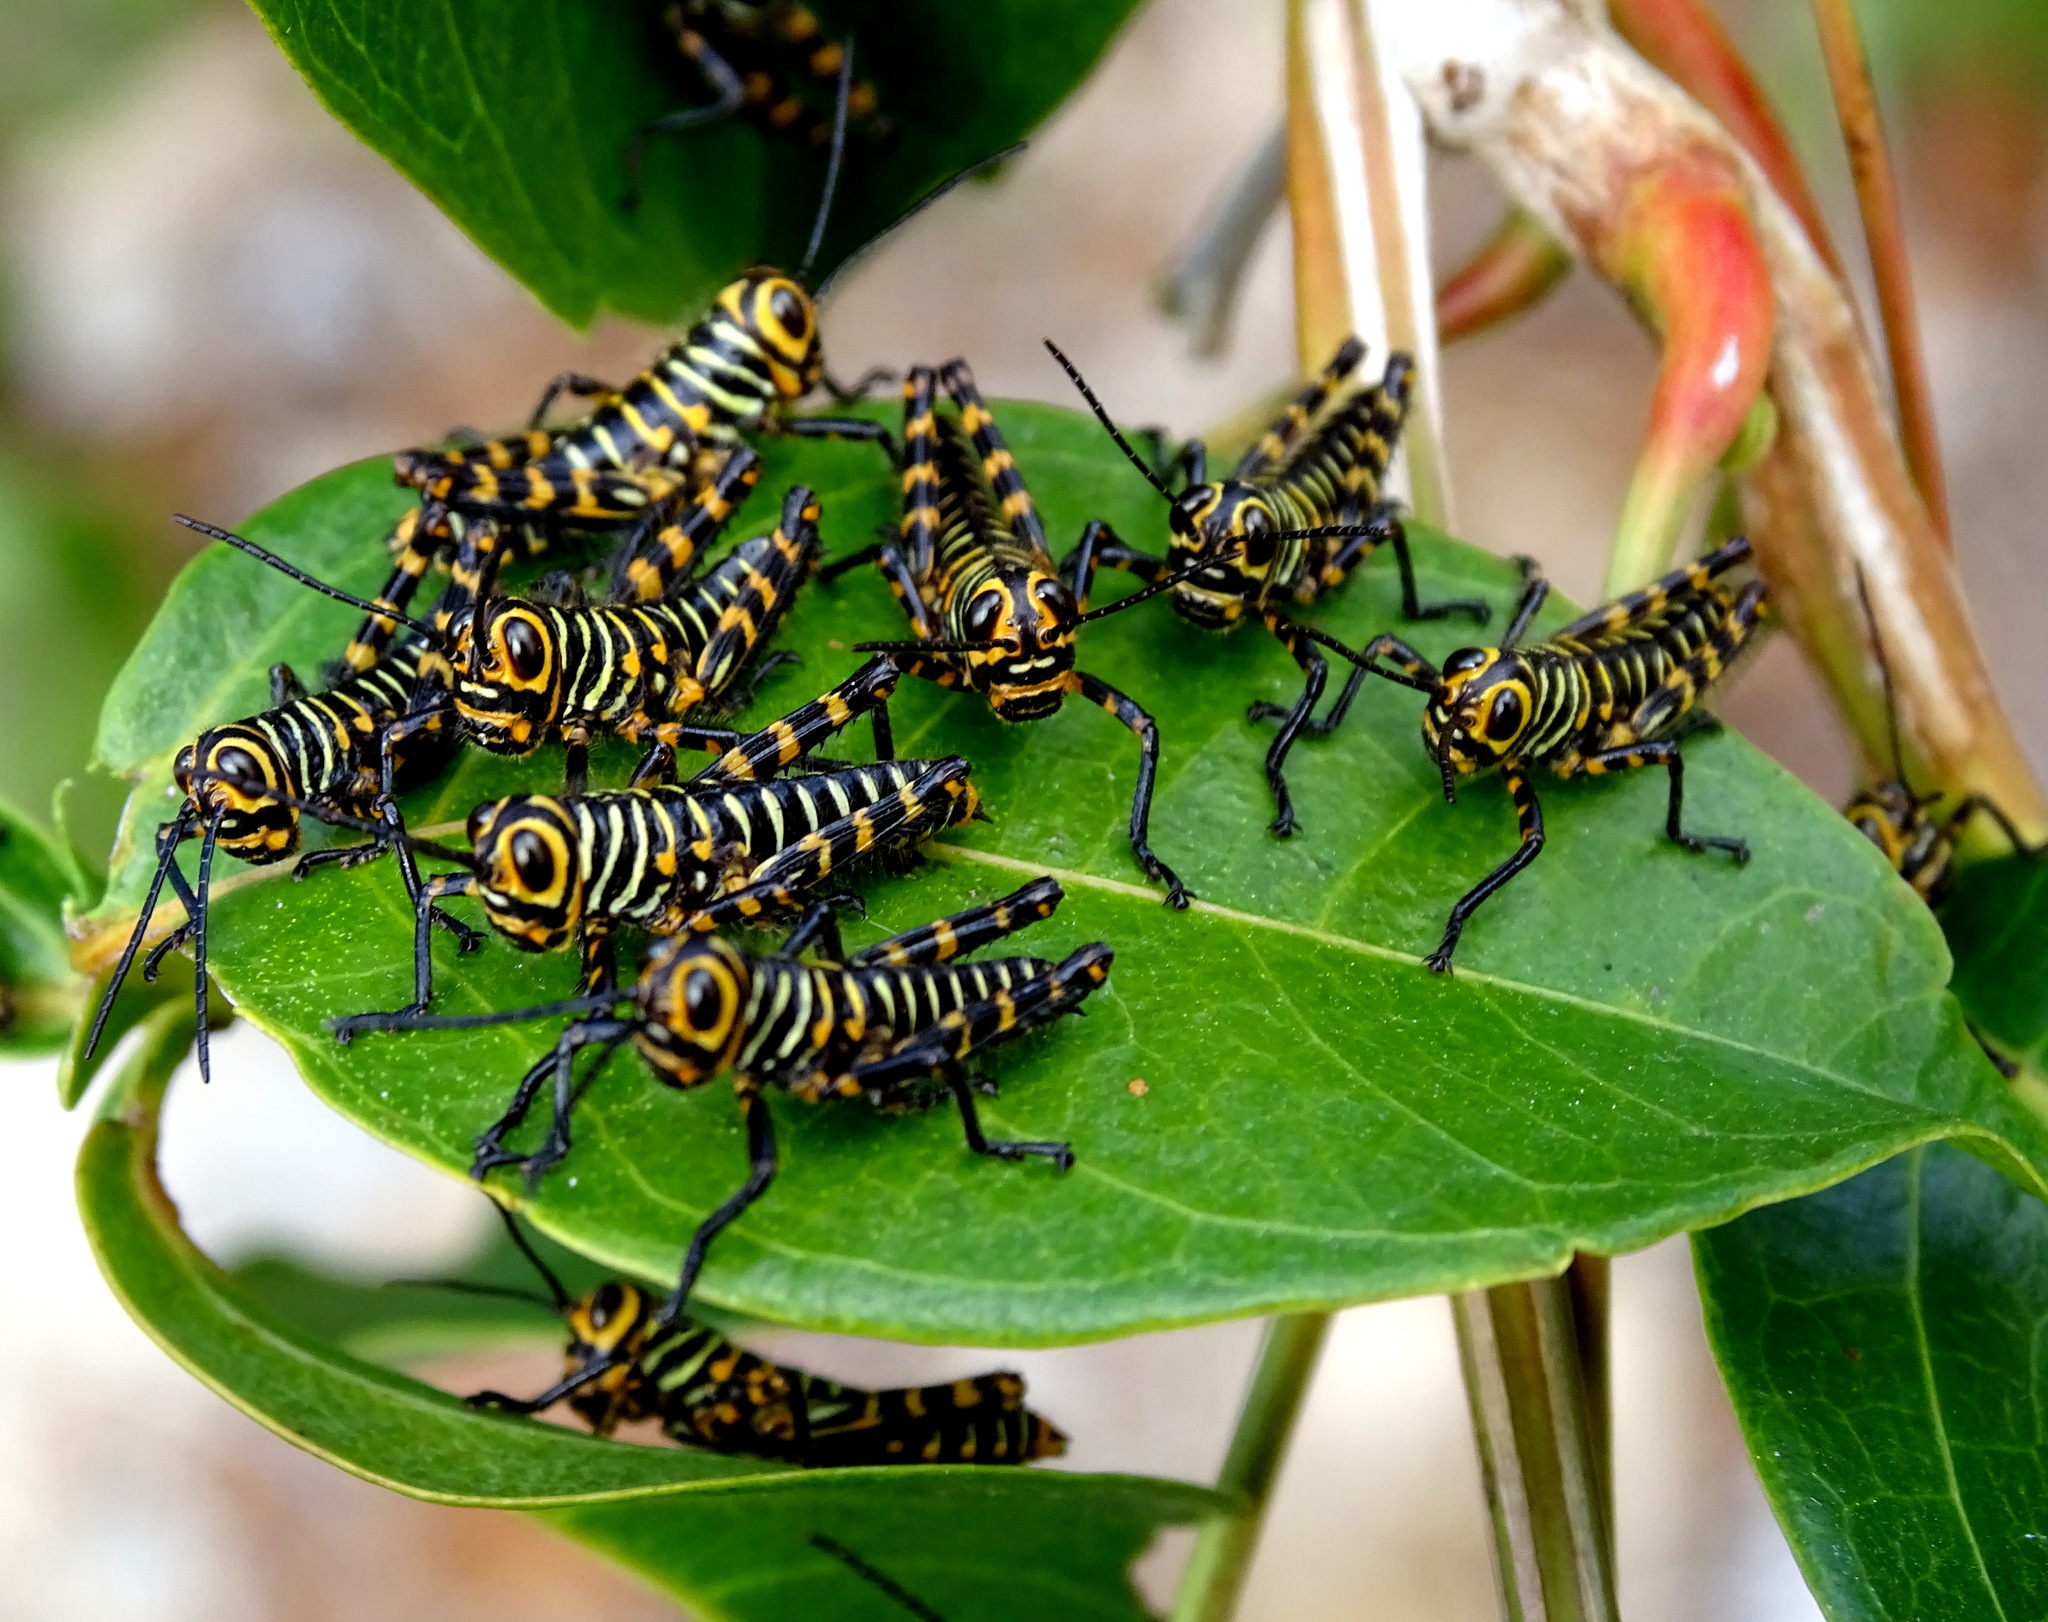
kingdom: Animalia
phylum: Arthropoda
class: Insecta
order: Orthoptera
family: Romaleidae
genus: Tropidacris
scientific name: Tropidacris cristata
